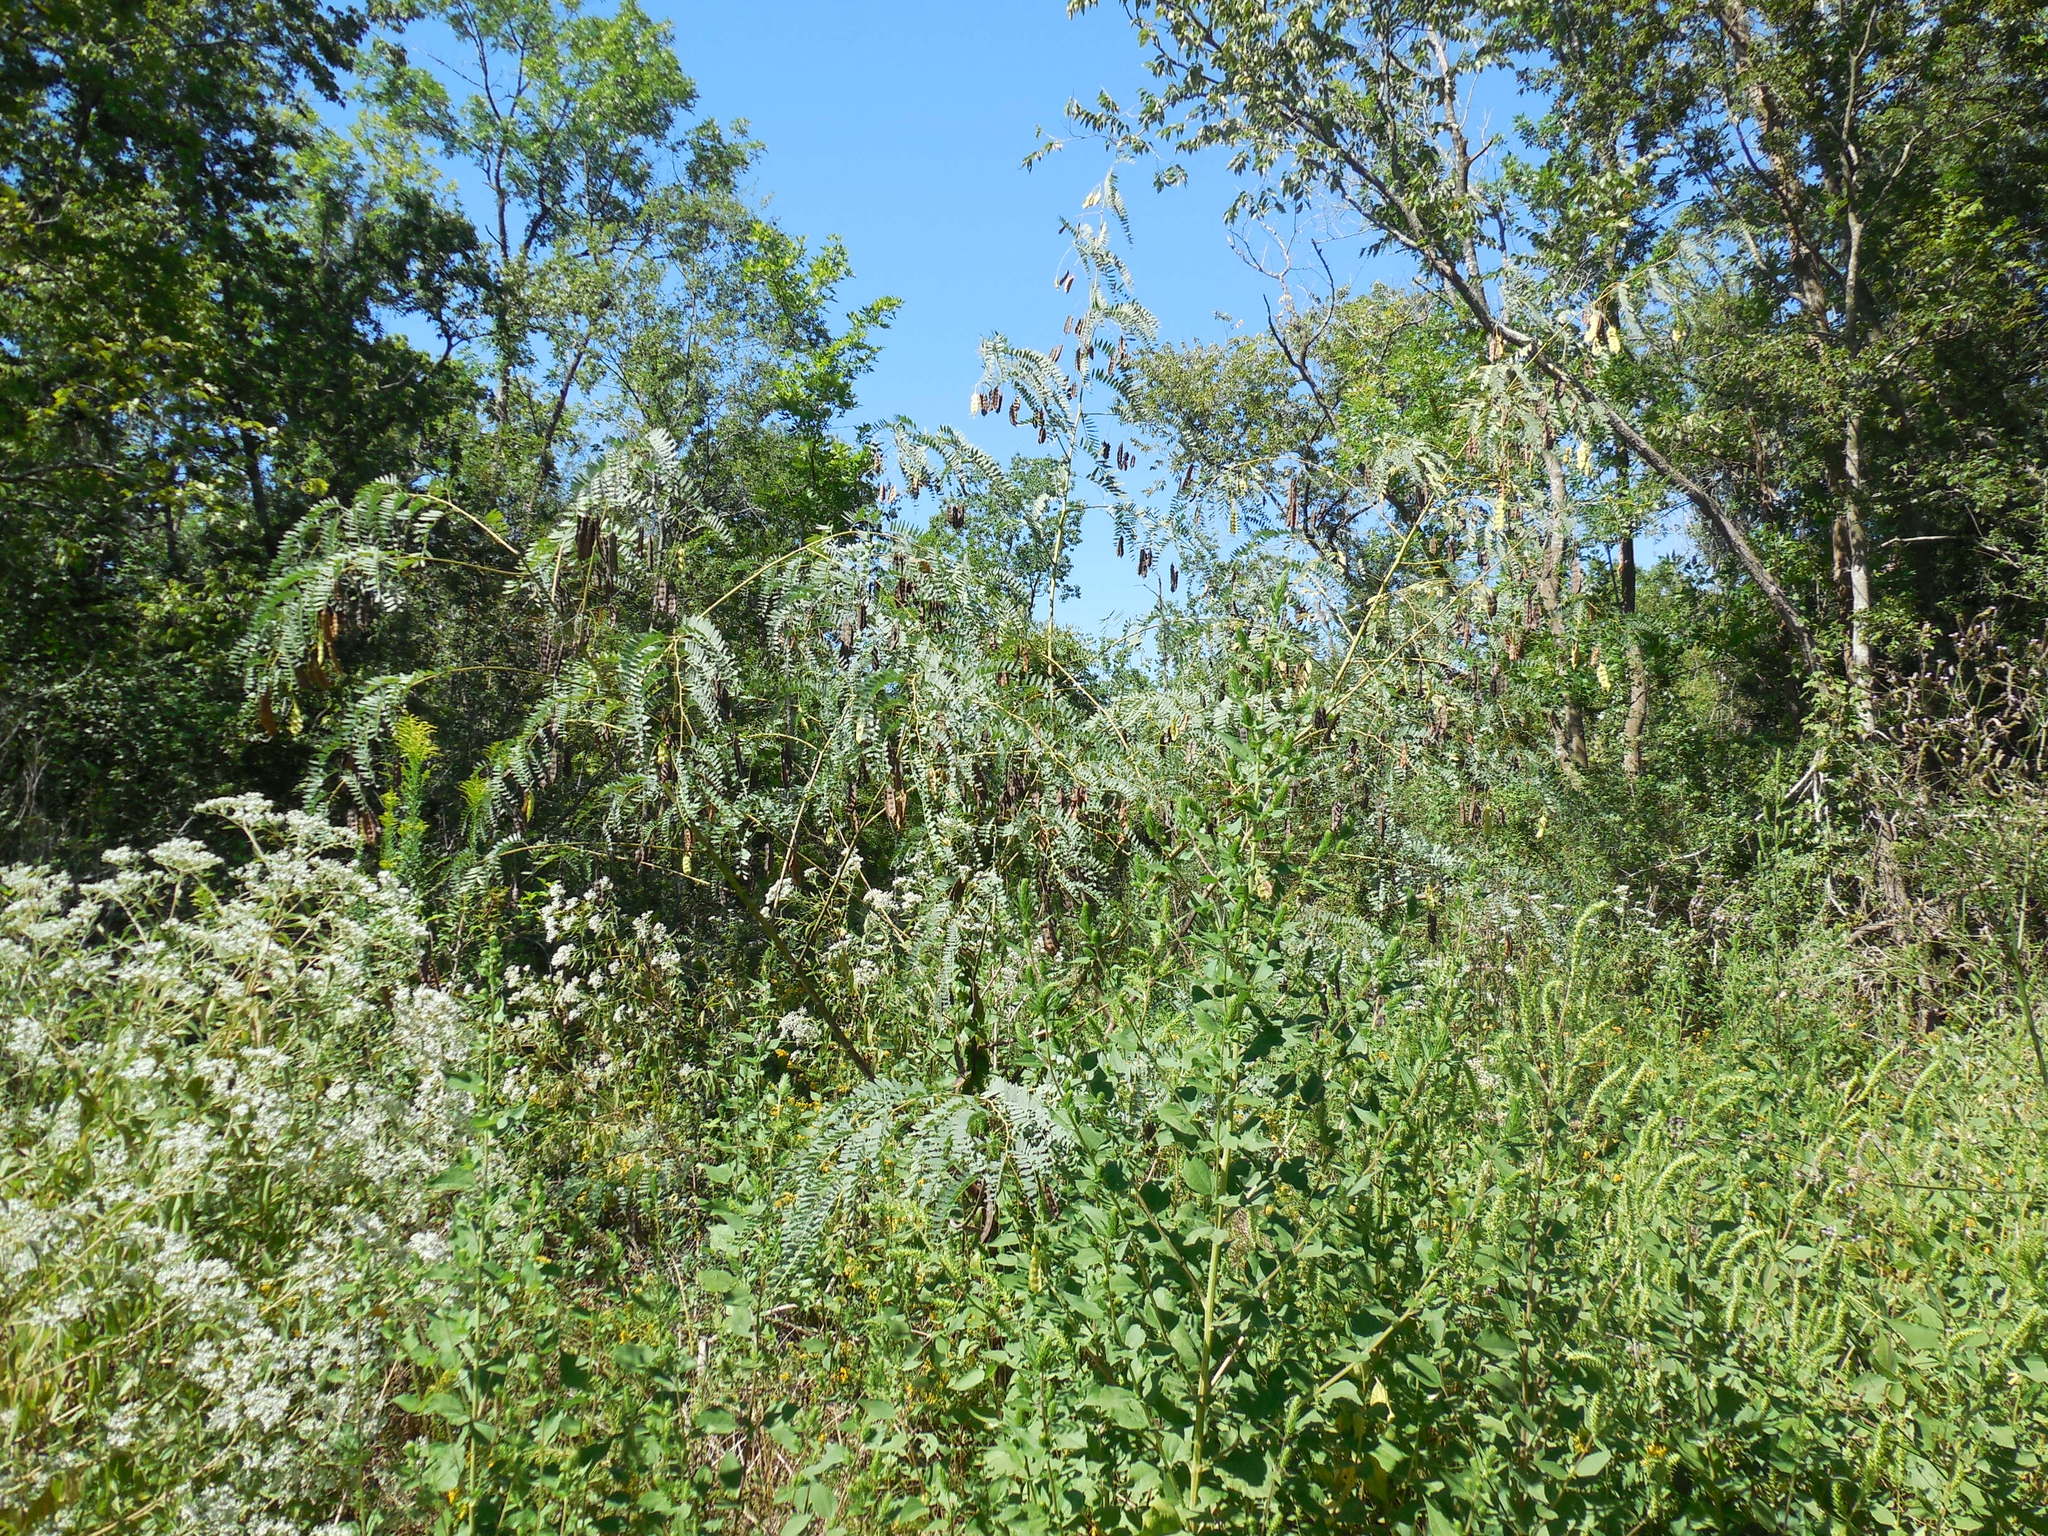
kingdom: Plantae
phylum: Tracheophyta
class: Magnoliopsida
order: Fabales
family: Fabaceae
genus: Sesbania
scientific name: Sesbania drummondii
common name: Poison-bean
